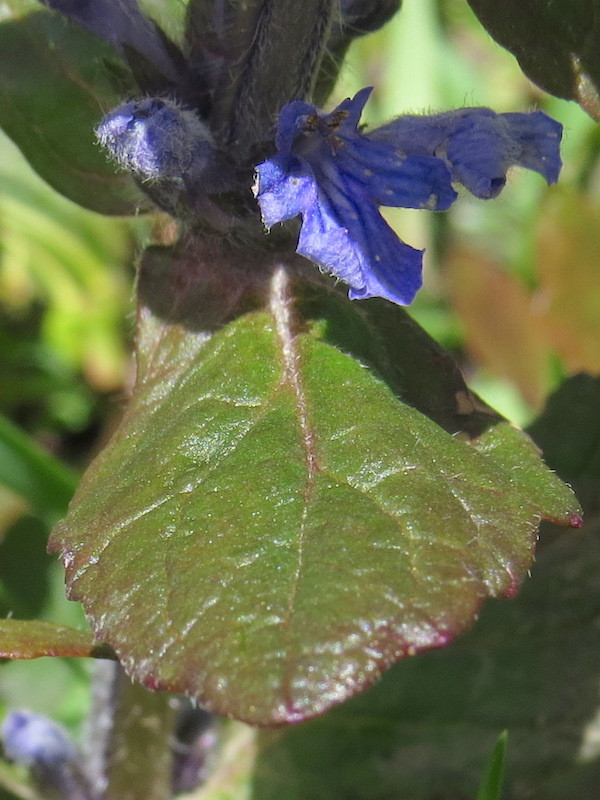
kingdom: Plantae
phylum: Tracheophyta
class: Magnoliopsida
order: Lamiales
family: Lamiaceae
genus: Ajuga
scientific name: Ajuga reptans
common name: Bugle
